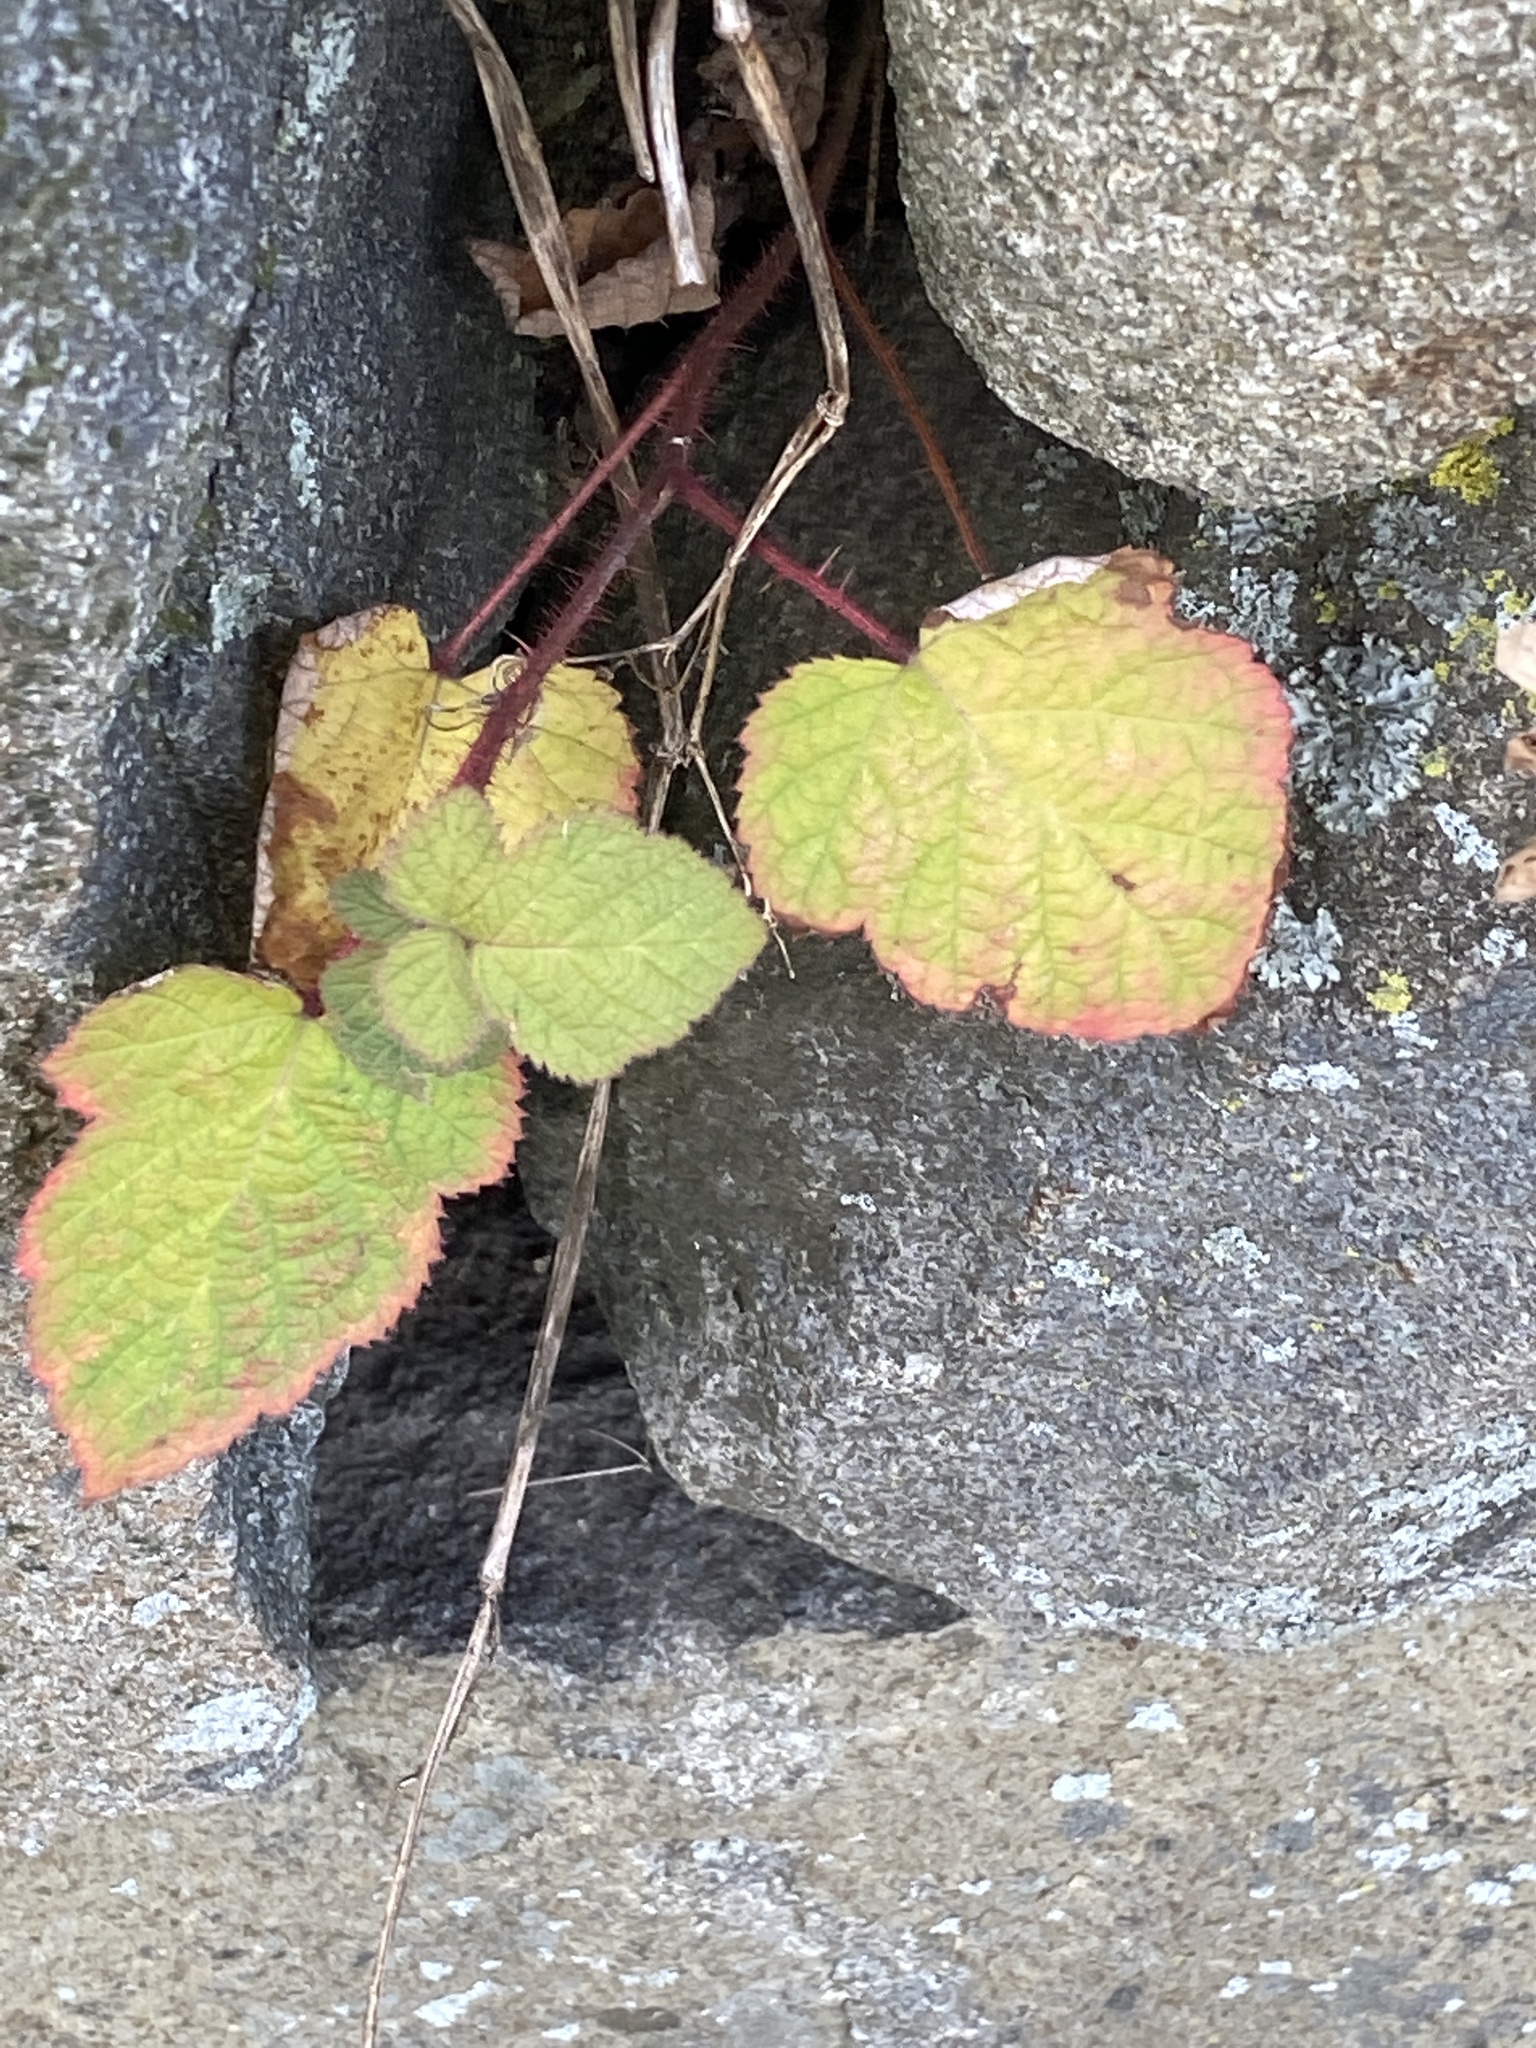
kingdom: Plantae
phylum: Tracheophyta
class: Magnoliopsida
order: Rosales
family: Rosaceae
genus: Rubus
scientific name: Rubus phoenicolasius
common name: Japanese wineberry
